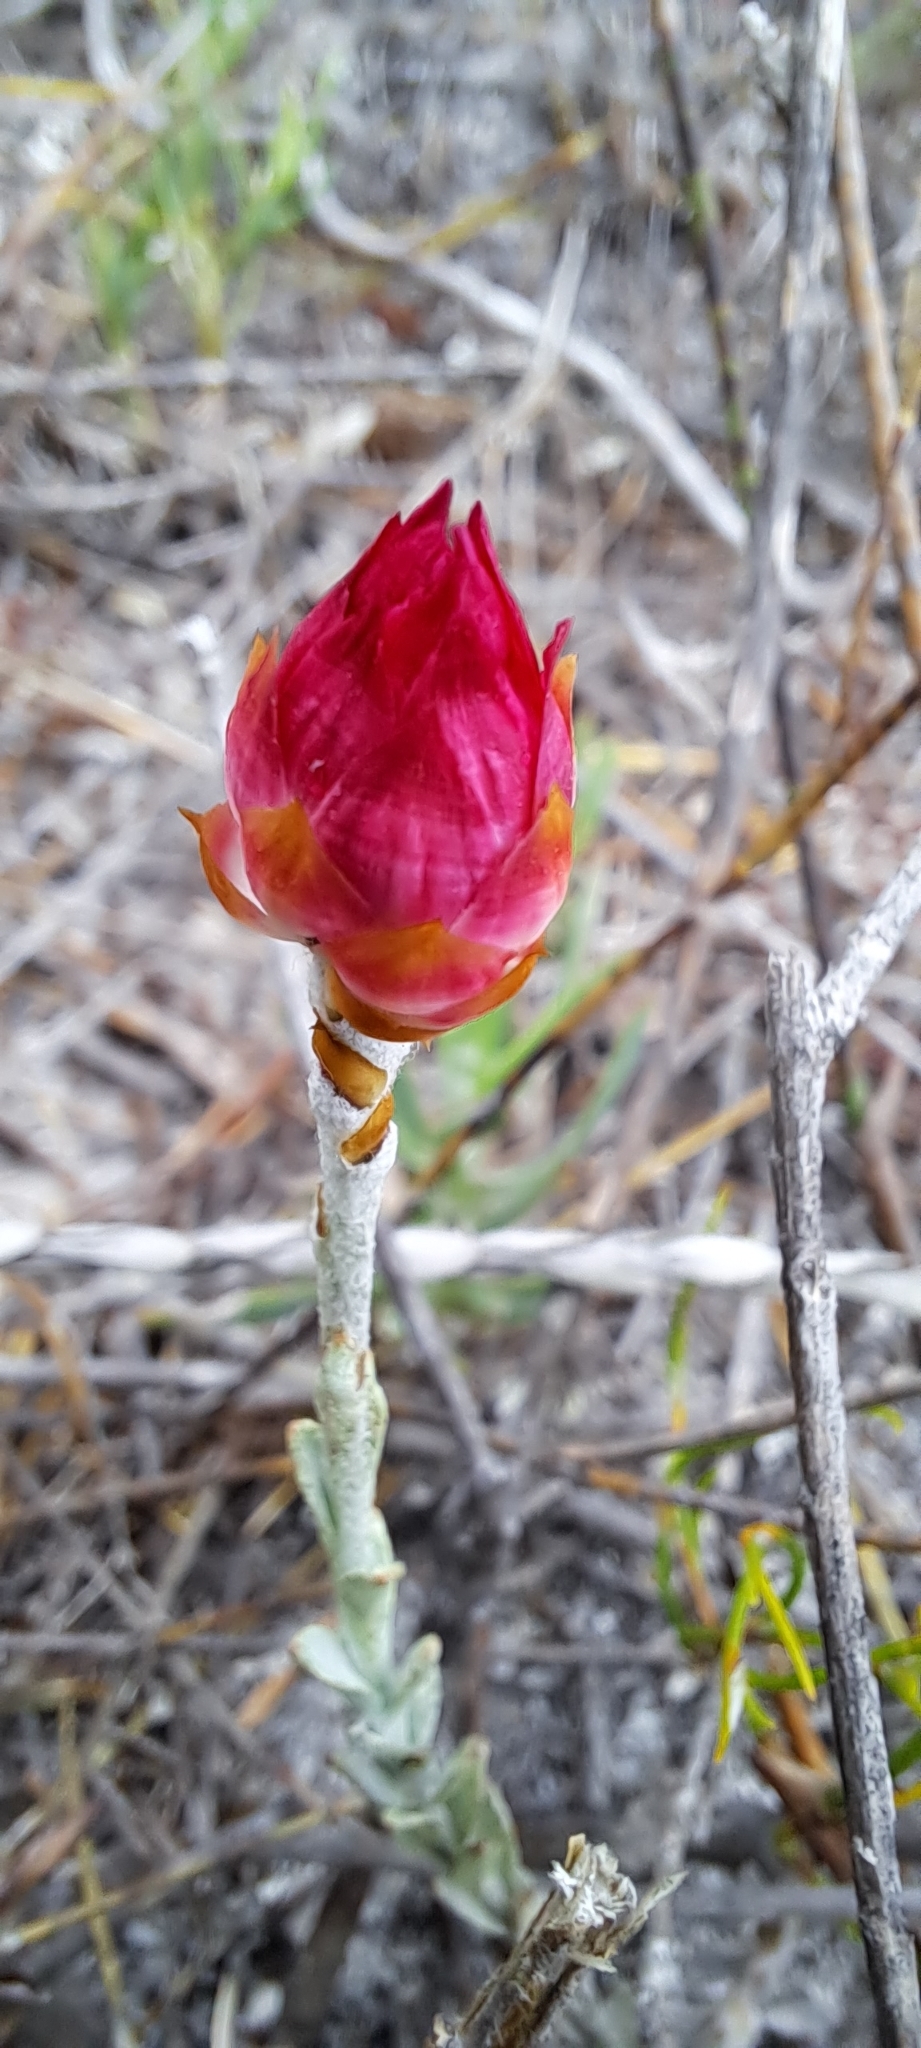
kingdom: Plantae
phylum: Tracheophyta
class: Magnoliopsida
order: Asterales
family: Asteraceae
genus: Syncarpha
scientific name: Syncarpha canescens
